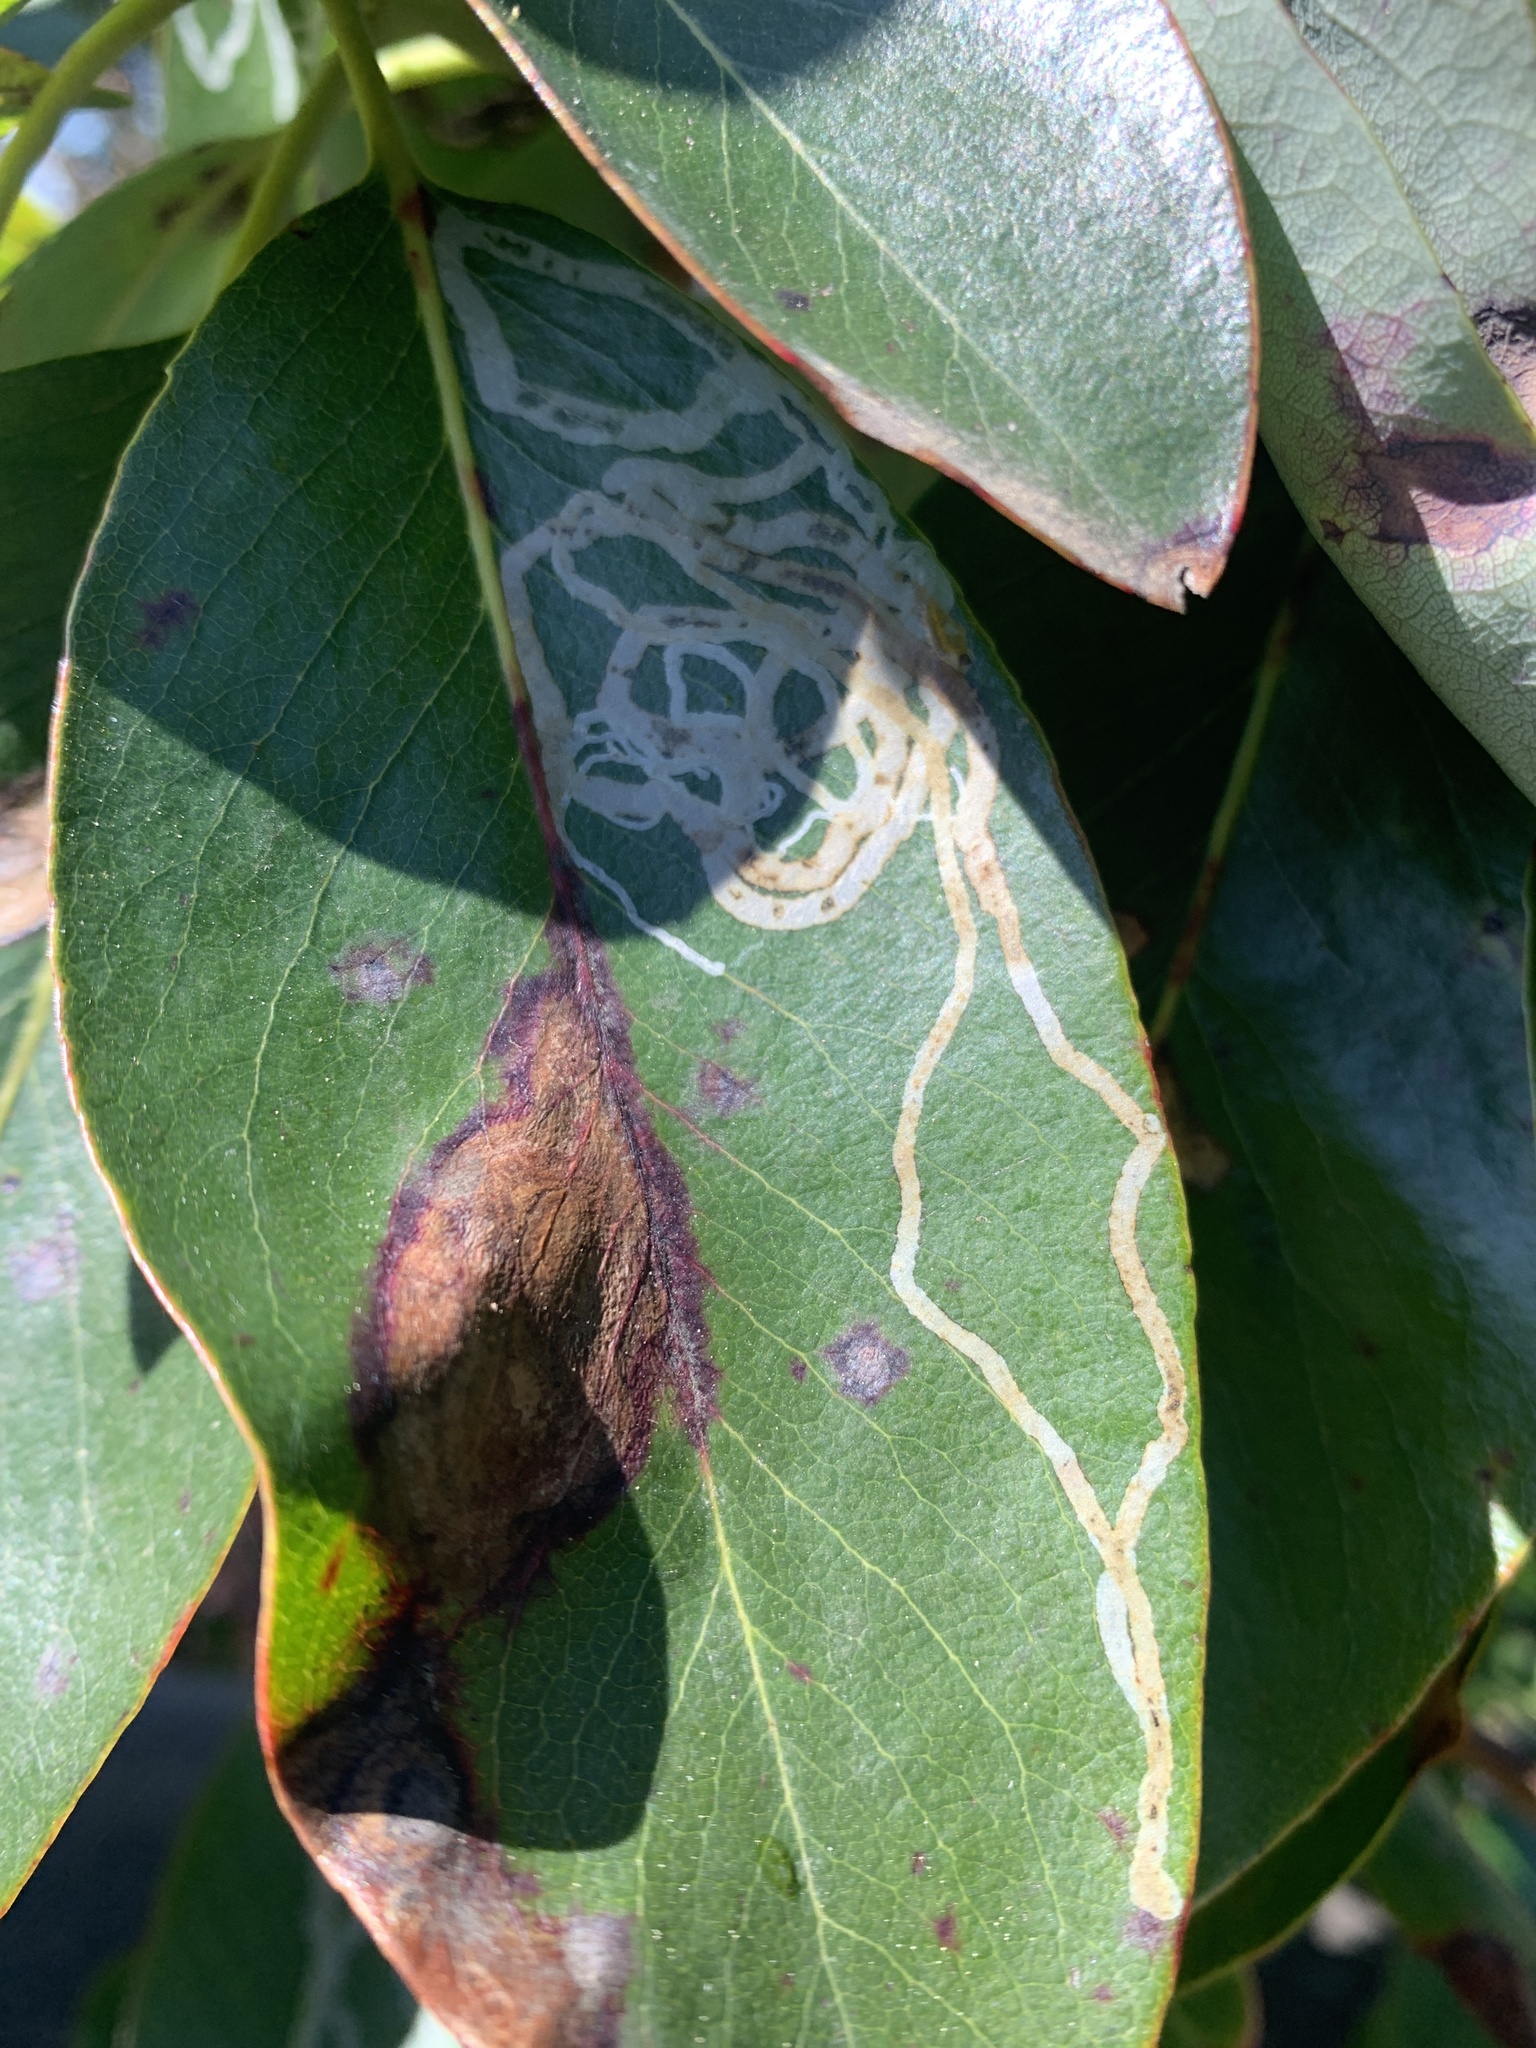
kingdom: Animalia
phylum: Arthropoda
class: Insecta
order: Lepidoptera
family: Gracillariidae
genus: Marmara
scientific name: Marmara arbutiella
